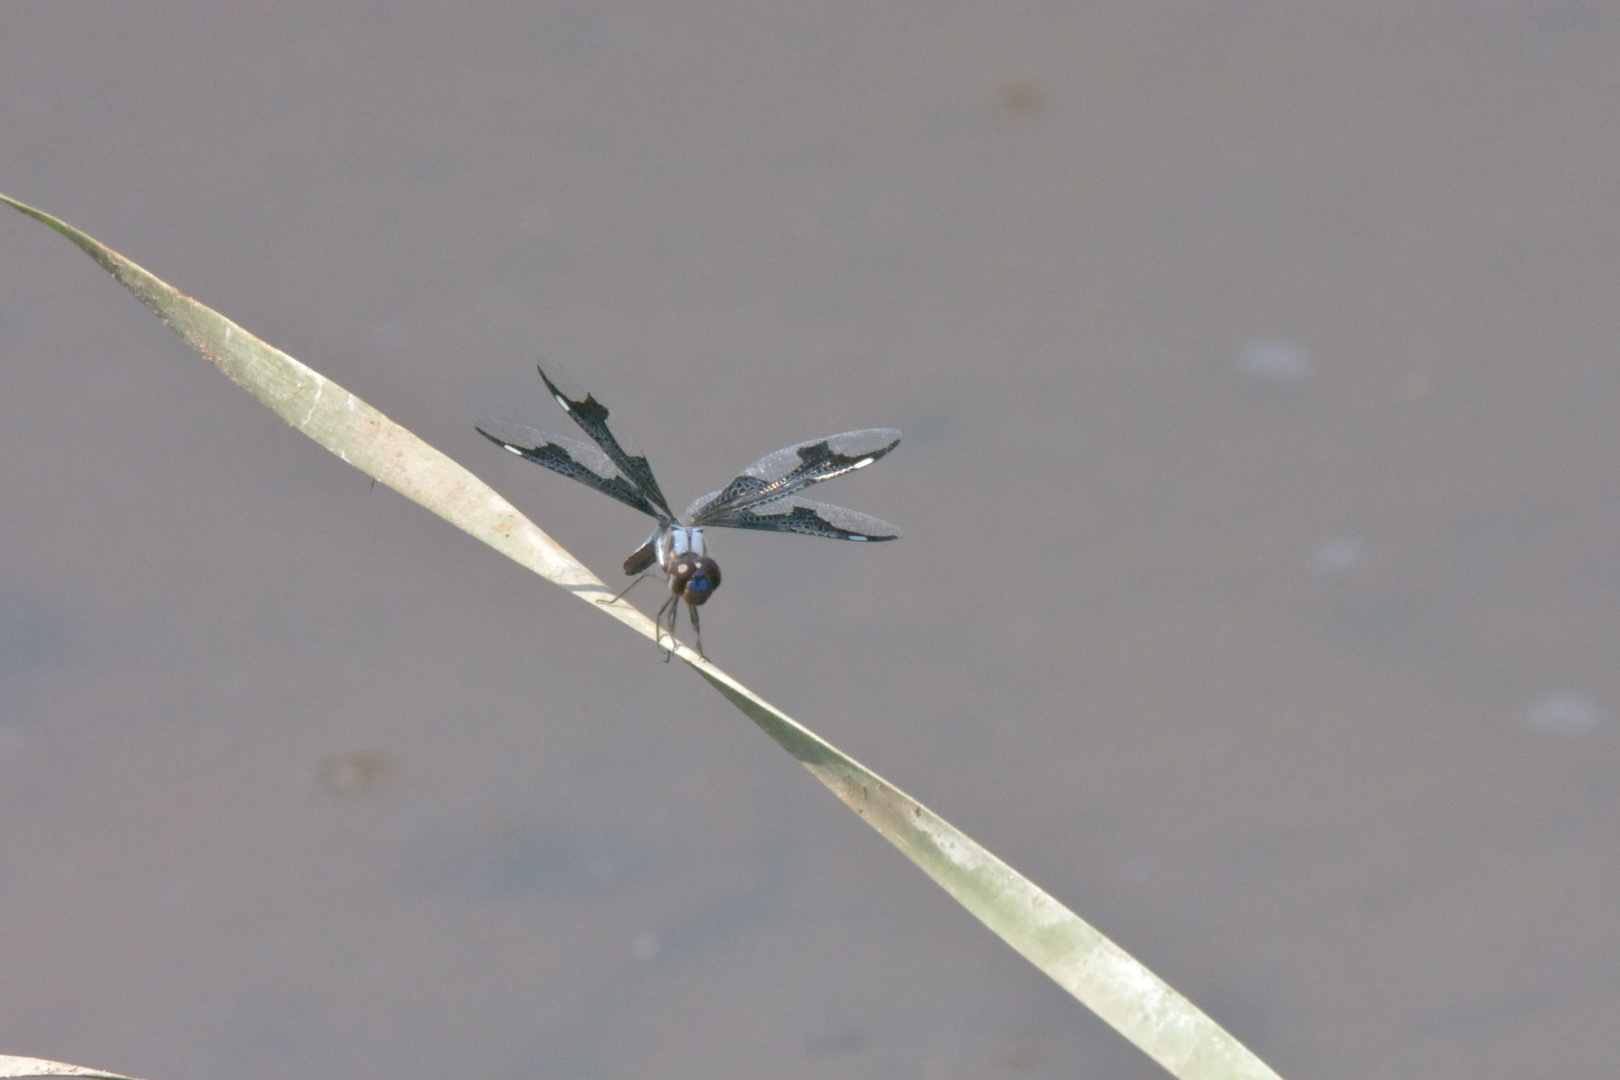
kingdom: Animalia
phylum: Arthropoda
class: Insecta
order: Odonata
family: Libellulidae
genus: Palpopleura
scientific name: Palpopleura portia
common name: Portia widow
